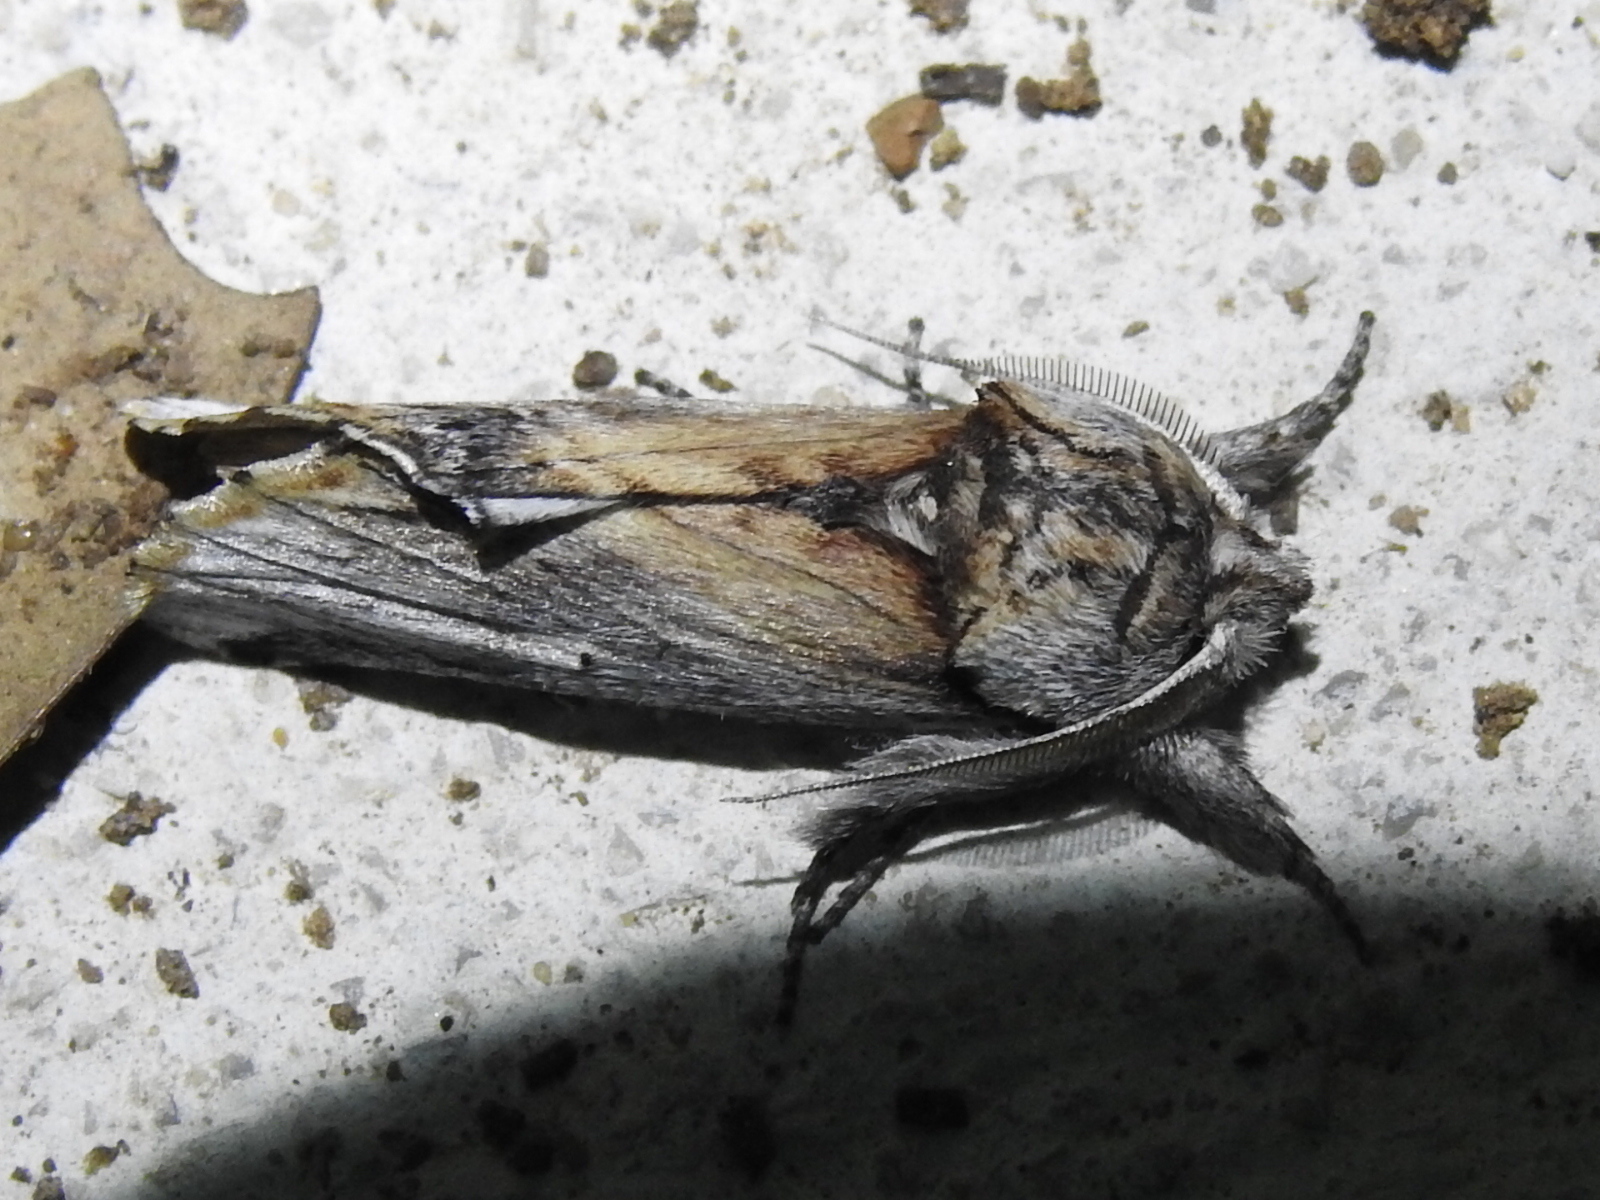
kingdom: Animalia
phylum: Arthropoda
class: Insecta
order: Lepidoptera
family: Notodontidae
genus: Oligocentria
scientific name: Oligocentria Ianassa lignicolor
